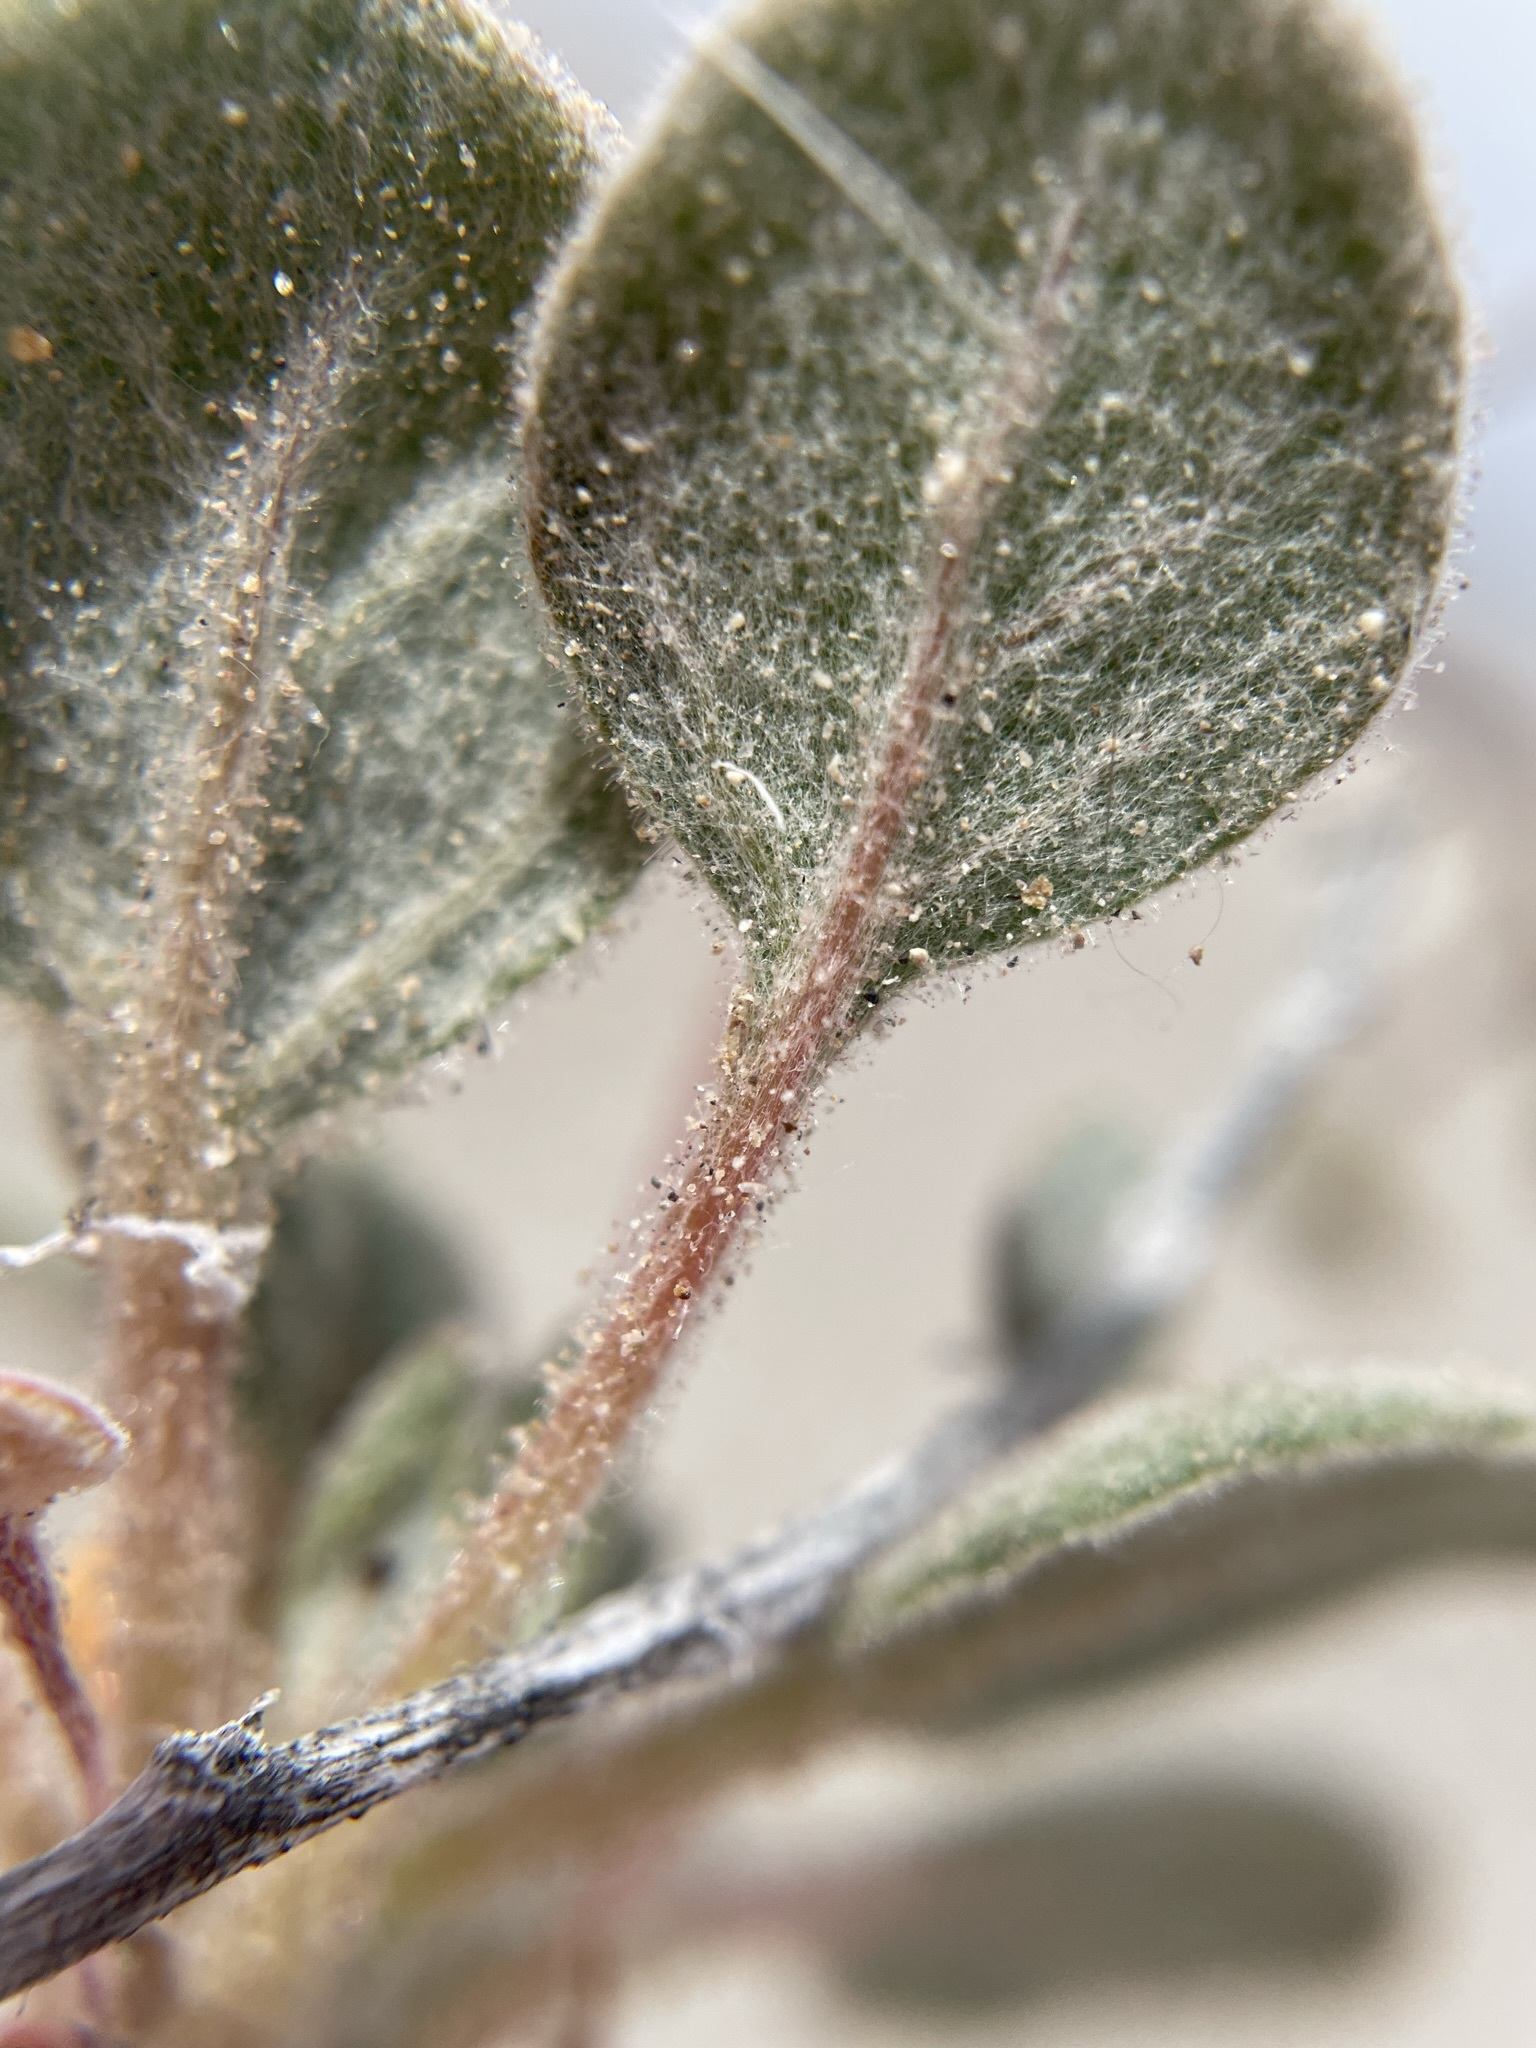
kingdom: Plantae
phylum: Tracheophyta
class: Magnoliopsida
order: Caryophyllales
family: Polygonaceae
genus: Eriogonum
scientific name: Eriogonum pusillum
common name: Yellow turbans
